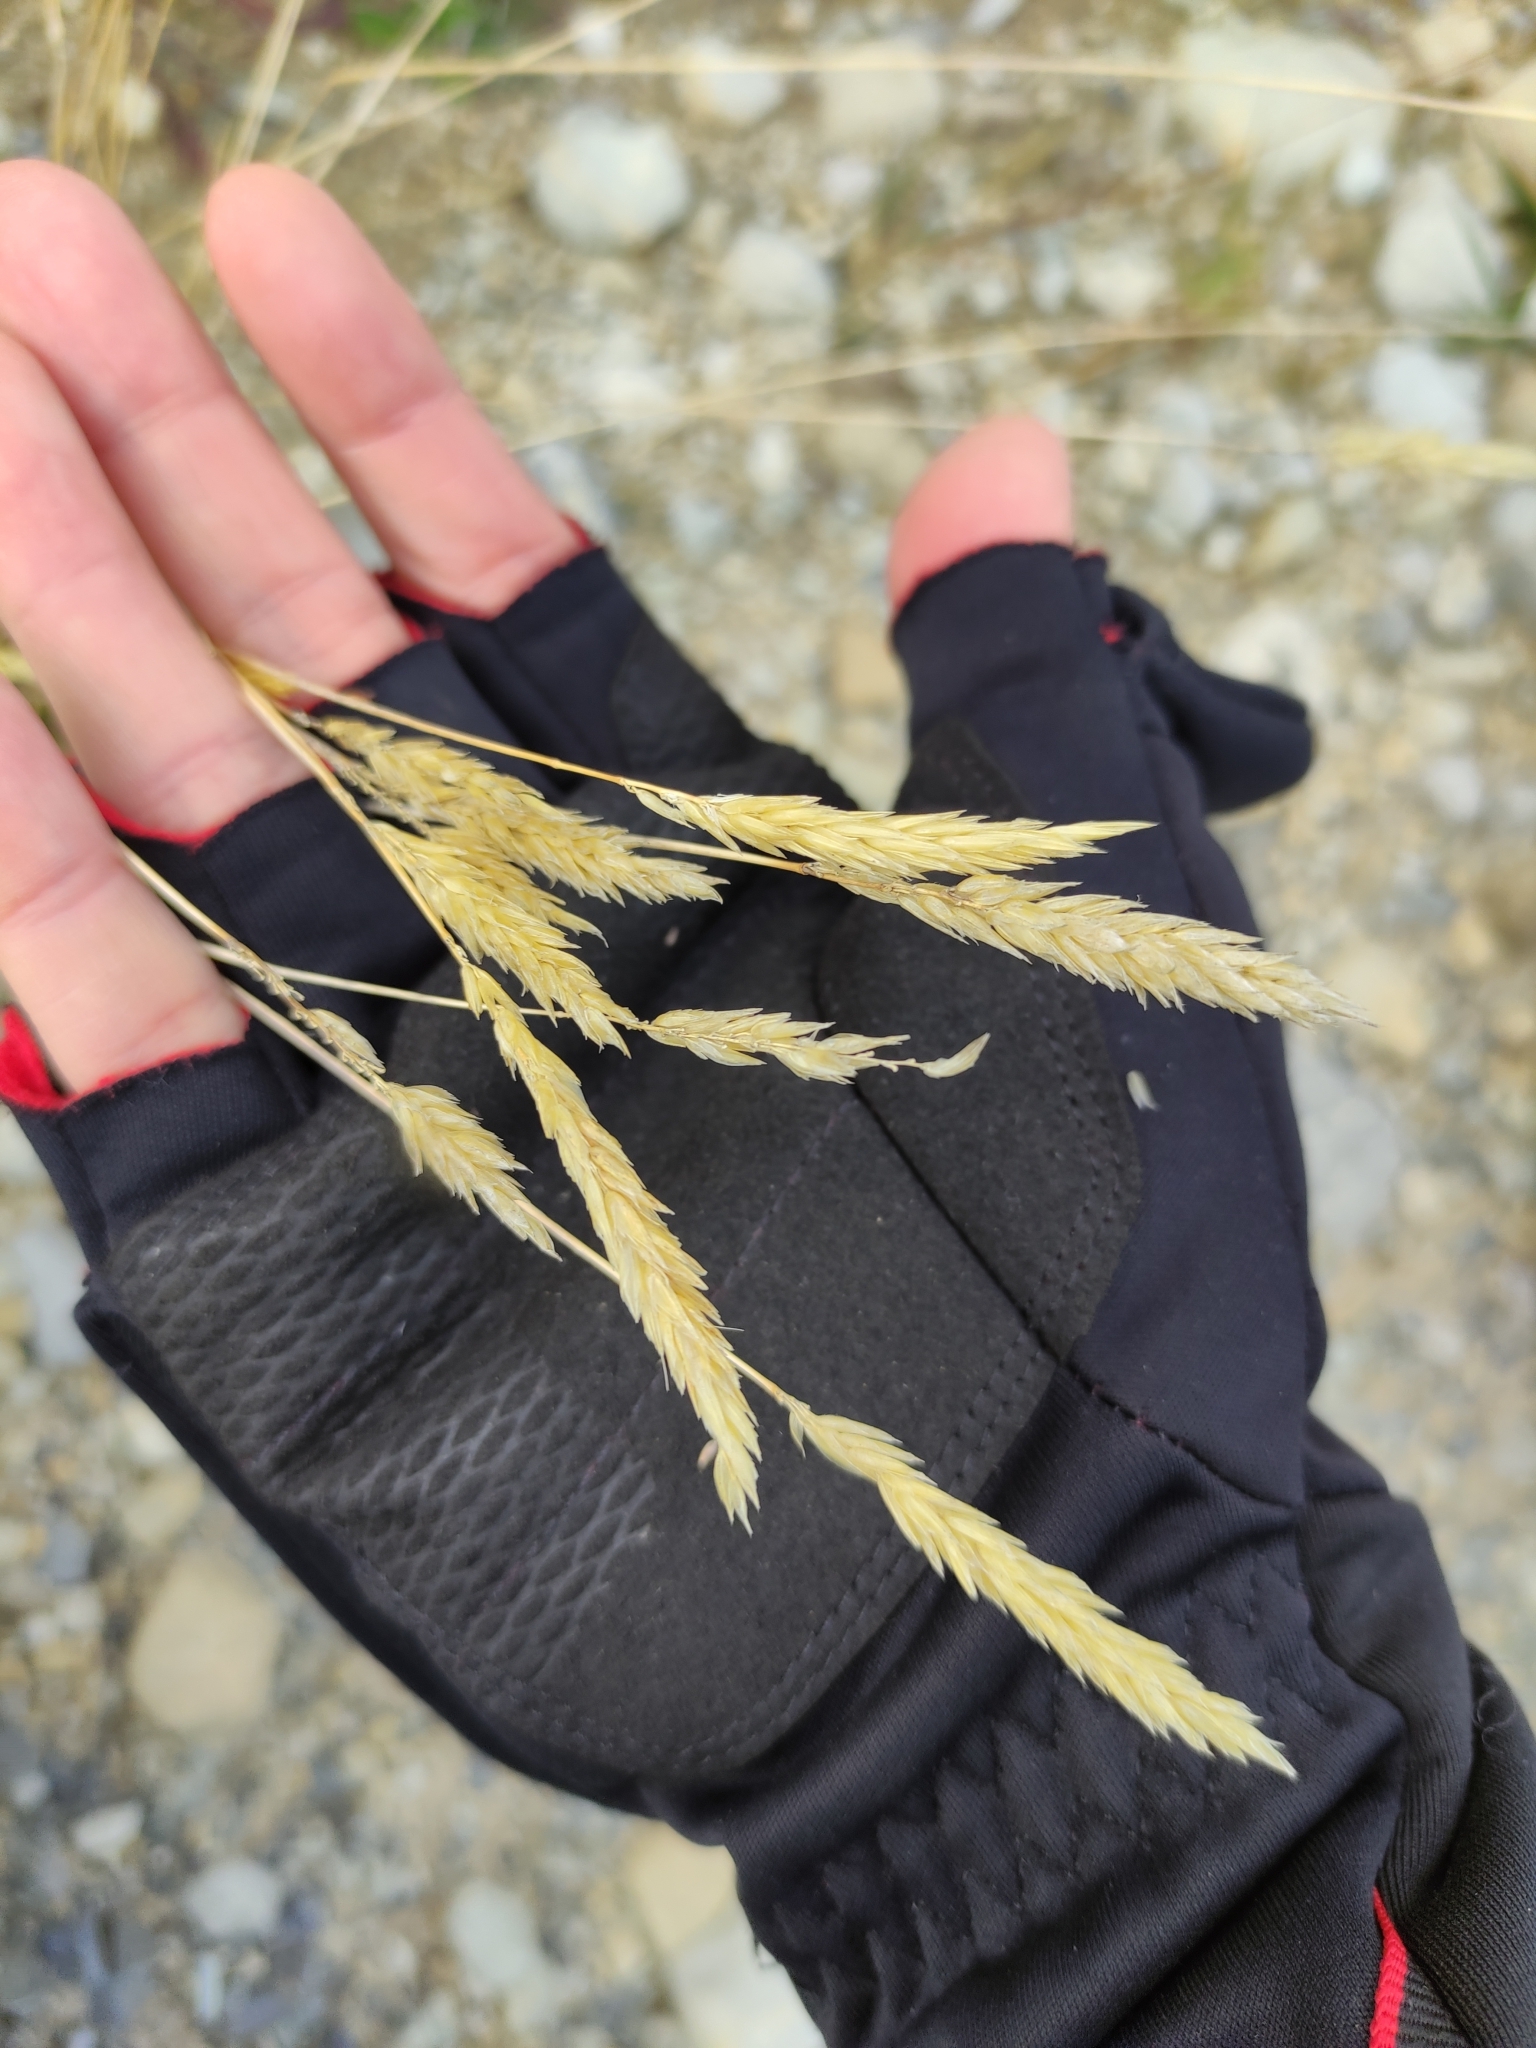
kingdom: Plantae
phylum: Tracheophyta
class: Liliopsida
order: Poales
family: Poaceae
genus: Anthoxanthum
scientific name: Anthoxanthum odoratum
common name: Sweet vernalgrass
